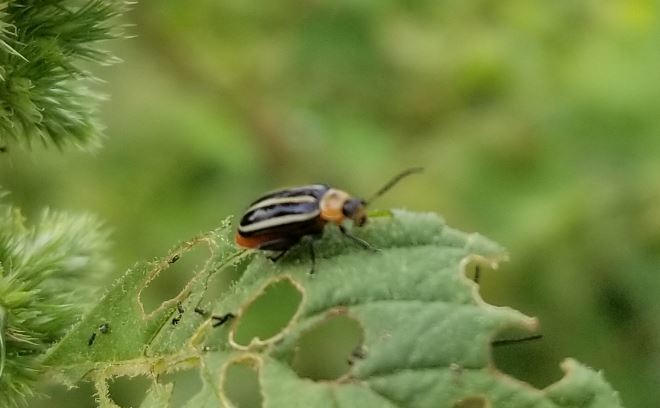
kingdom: Animalia
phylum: Arthropoda
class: Insecta
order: Coleoptera
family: Chrysomelidae
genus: Disonycha
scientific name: Disonycha glabrata
